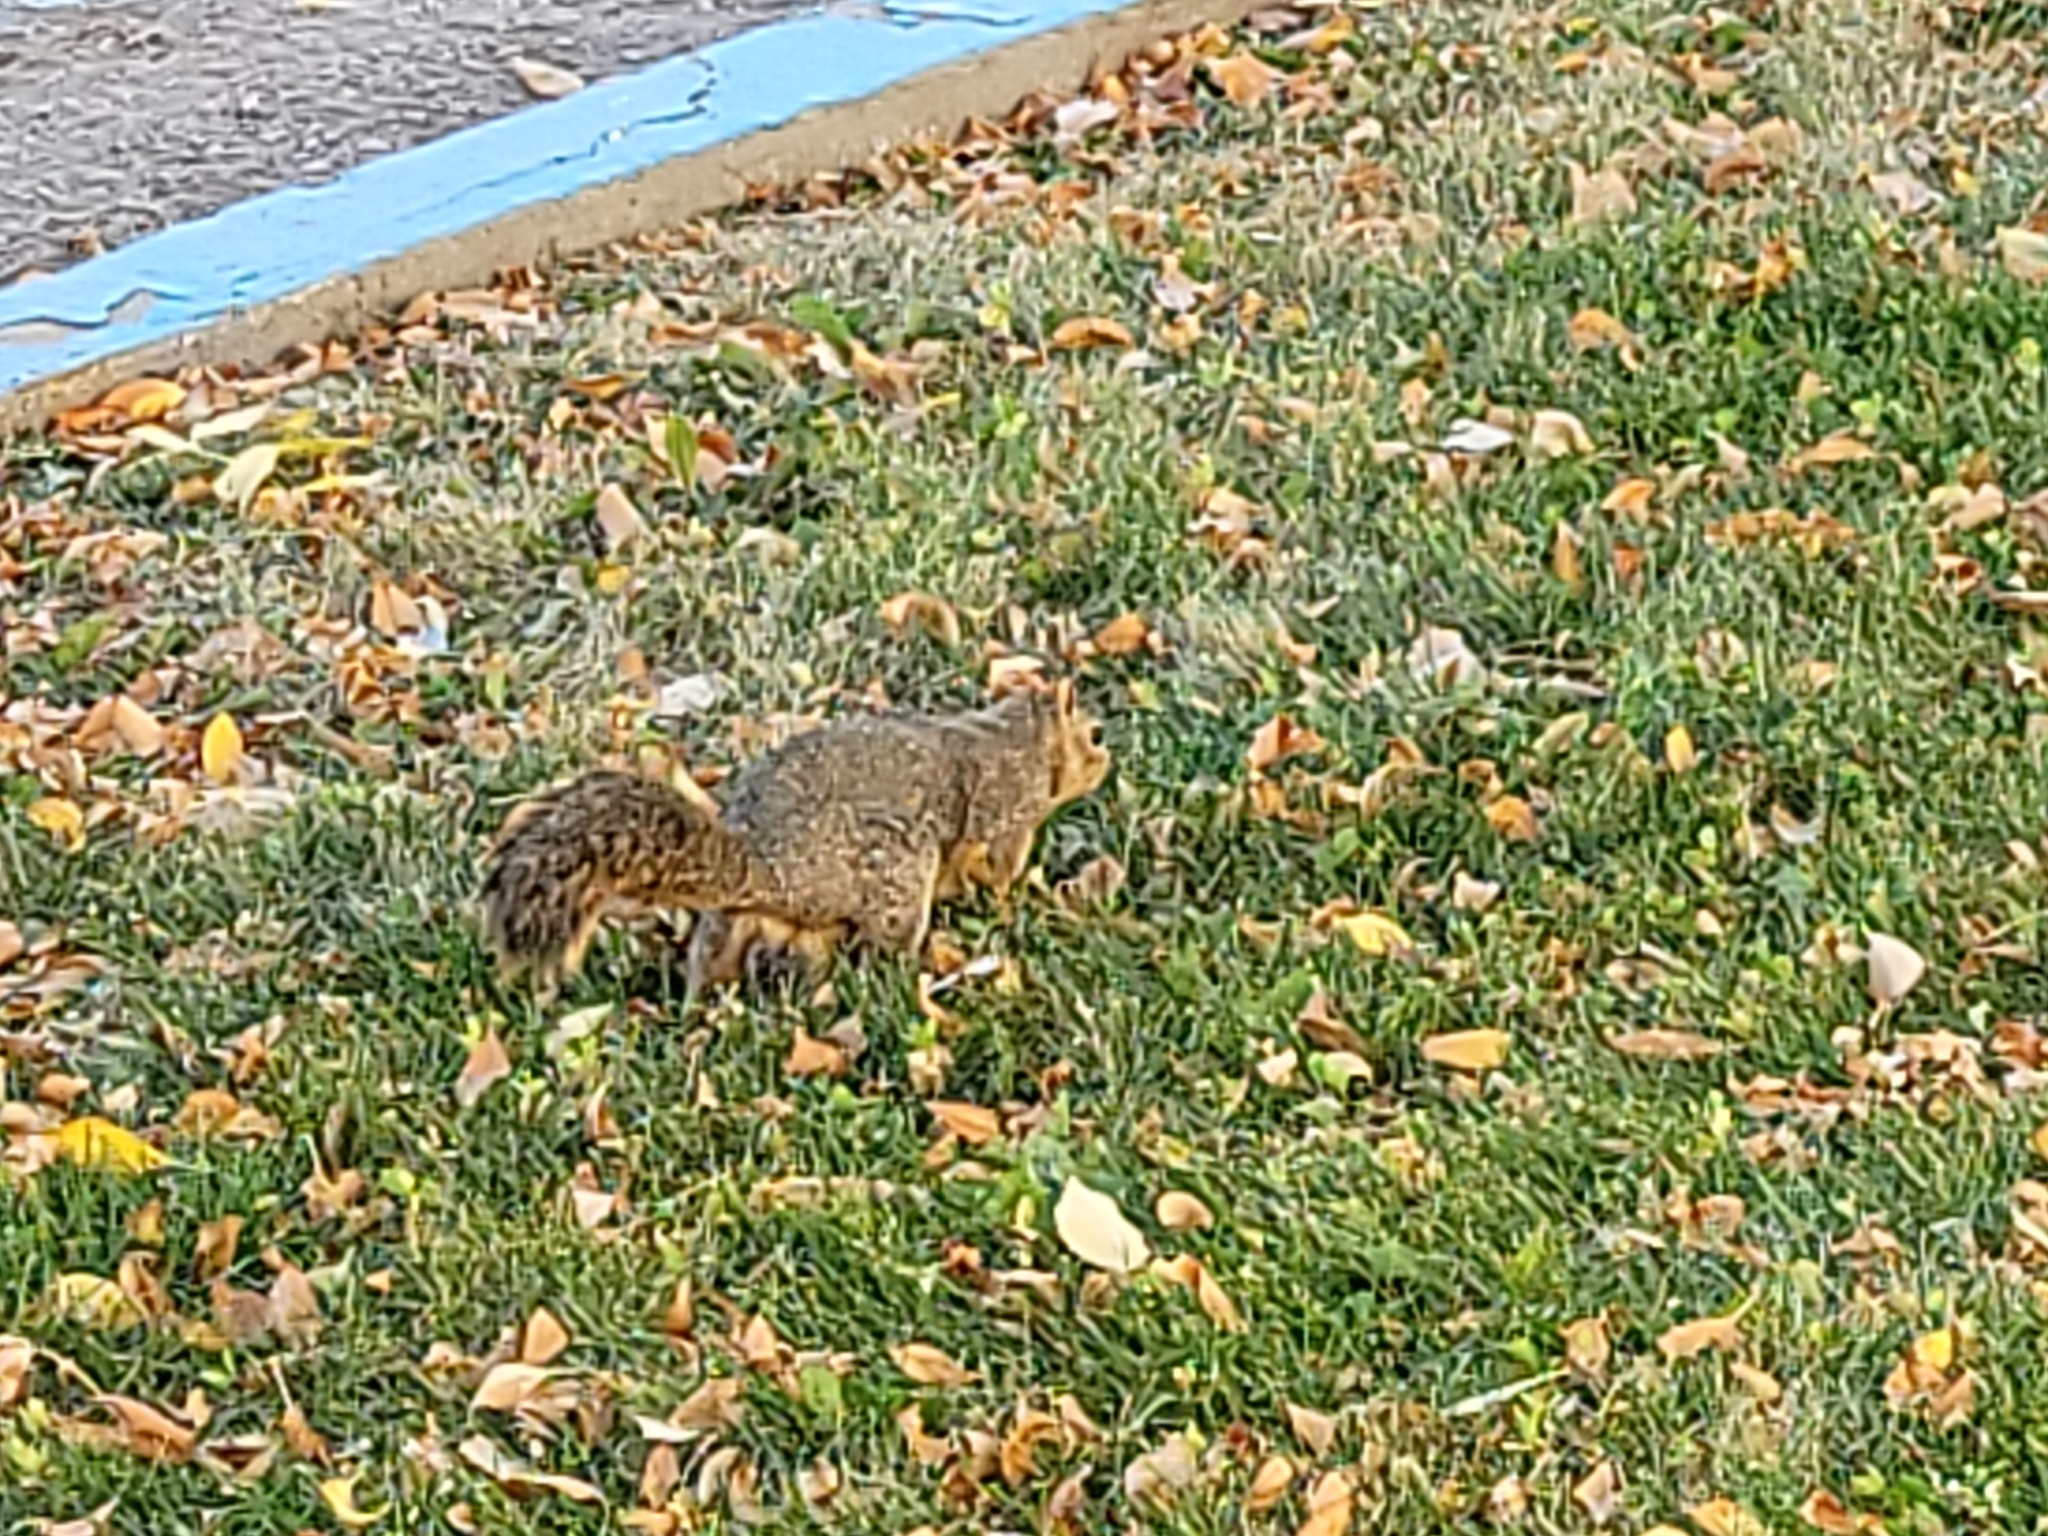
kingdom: Animalia
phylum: Chordata
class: Mammalia
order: Rodentia
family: Sciuridae
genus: Sciurus
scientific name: Sciurus niger
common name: Fox squirrel
